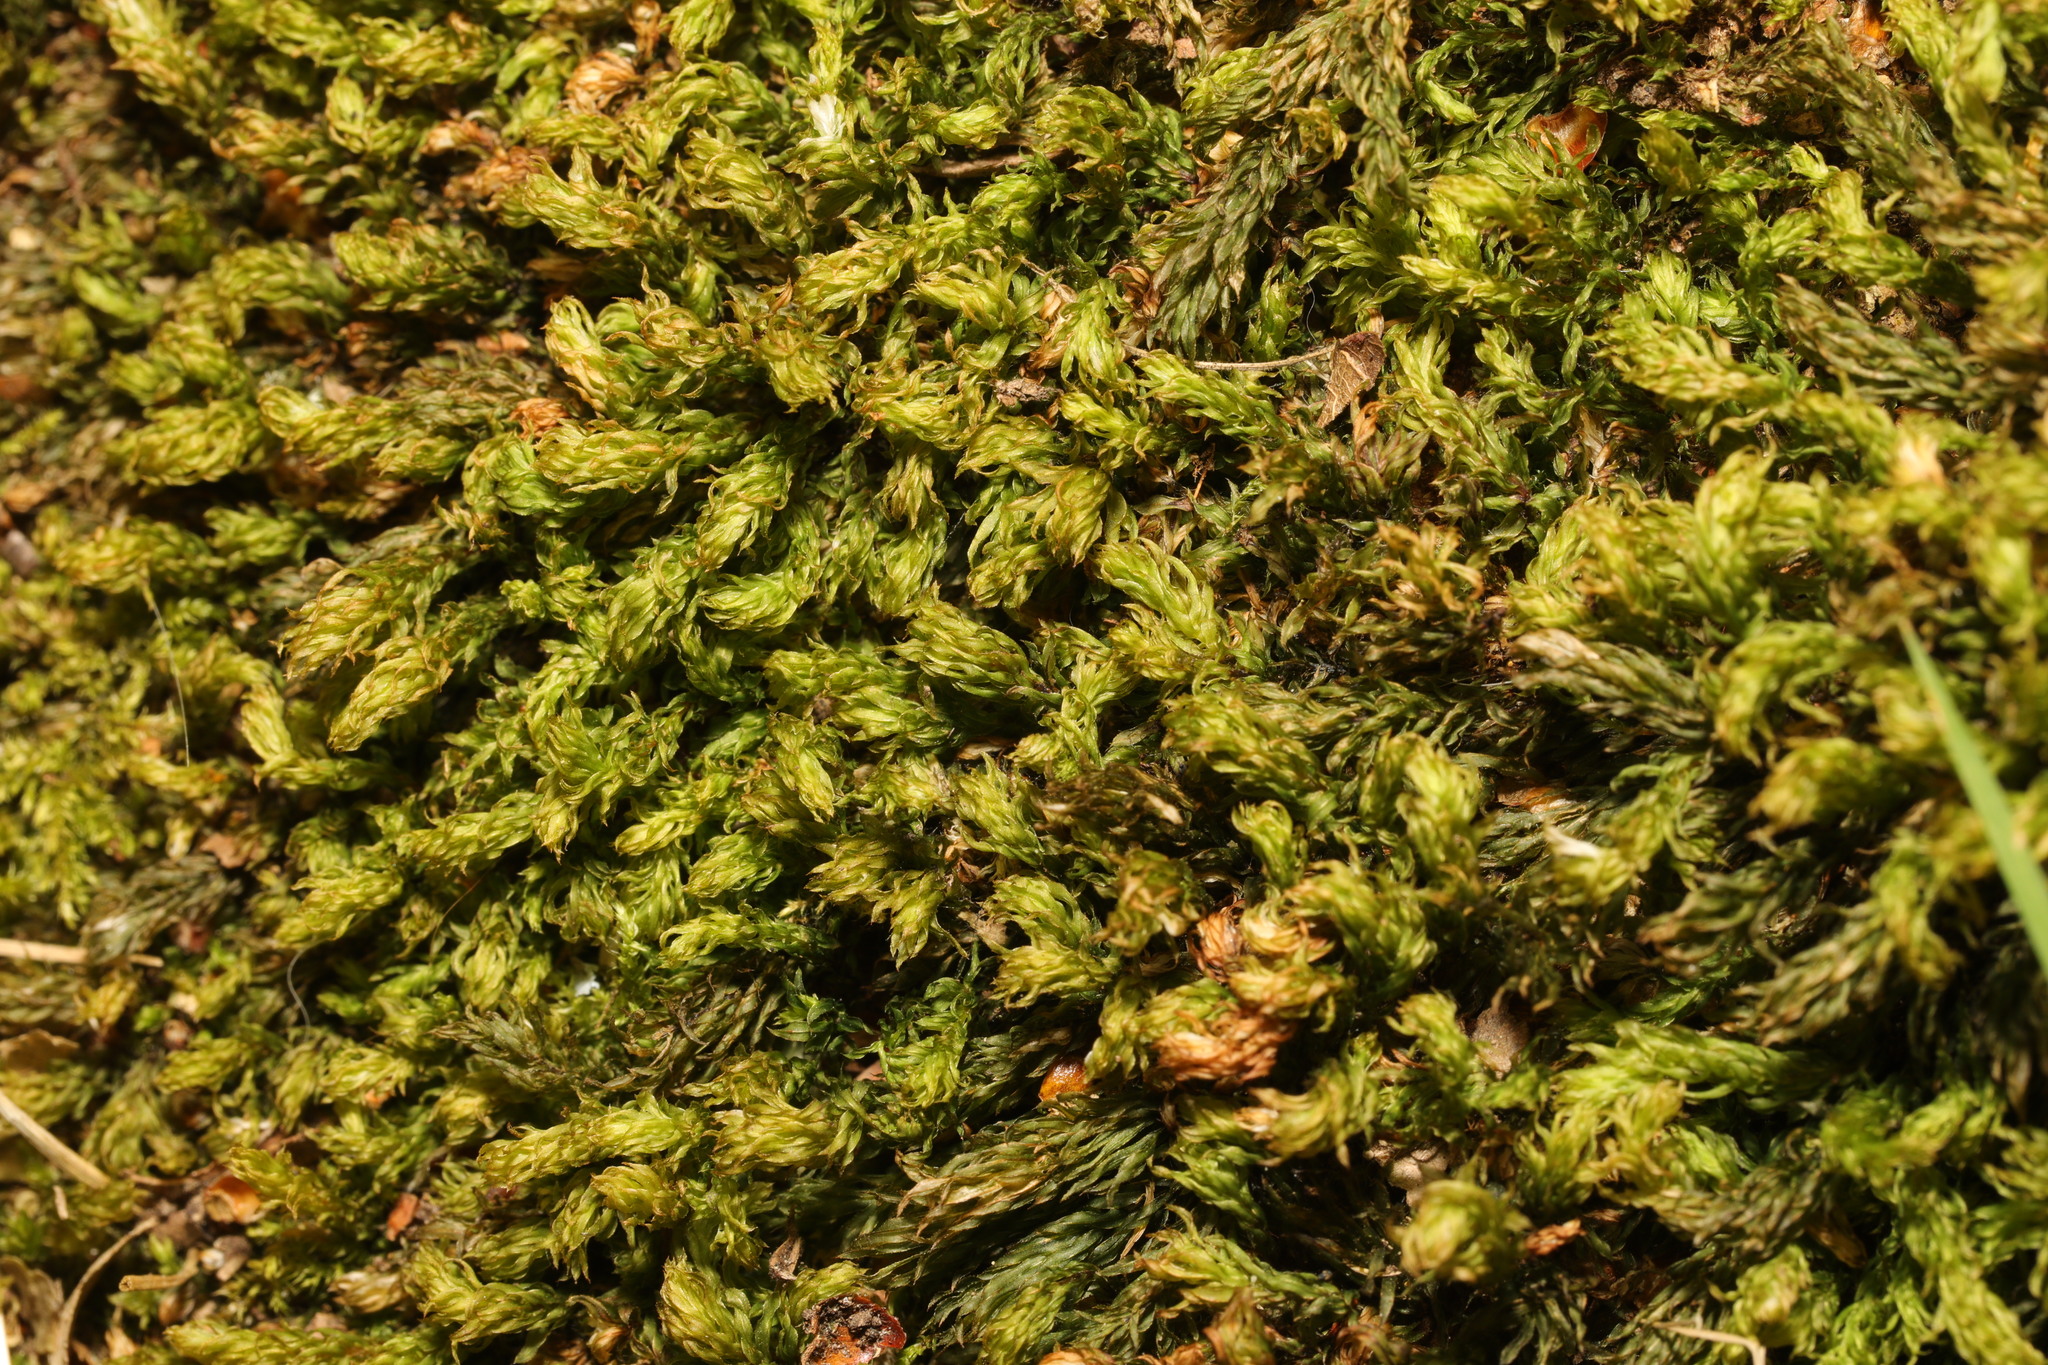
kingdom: Plantae
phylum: Bryophyta
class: Bryopsida
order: Bryales
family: Mniaceae
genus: Mnium
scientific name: Mnium hornum
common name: Swan's-neck leafy moss
